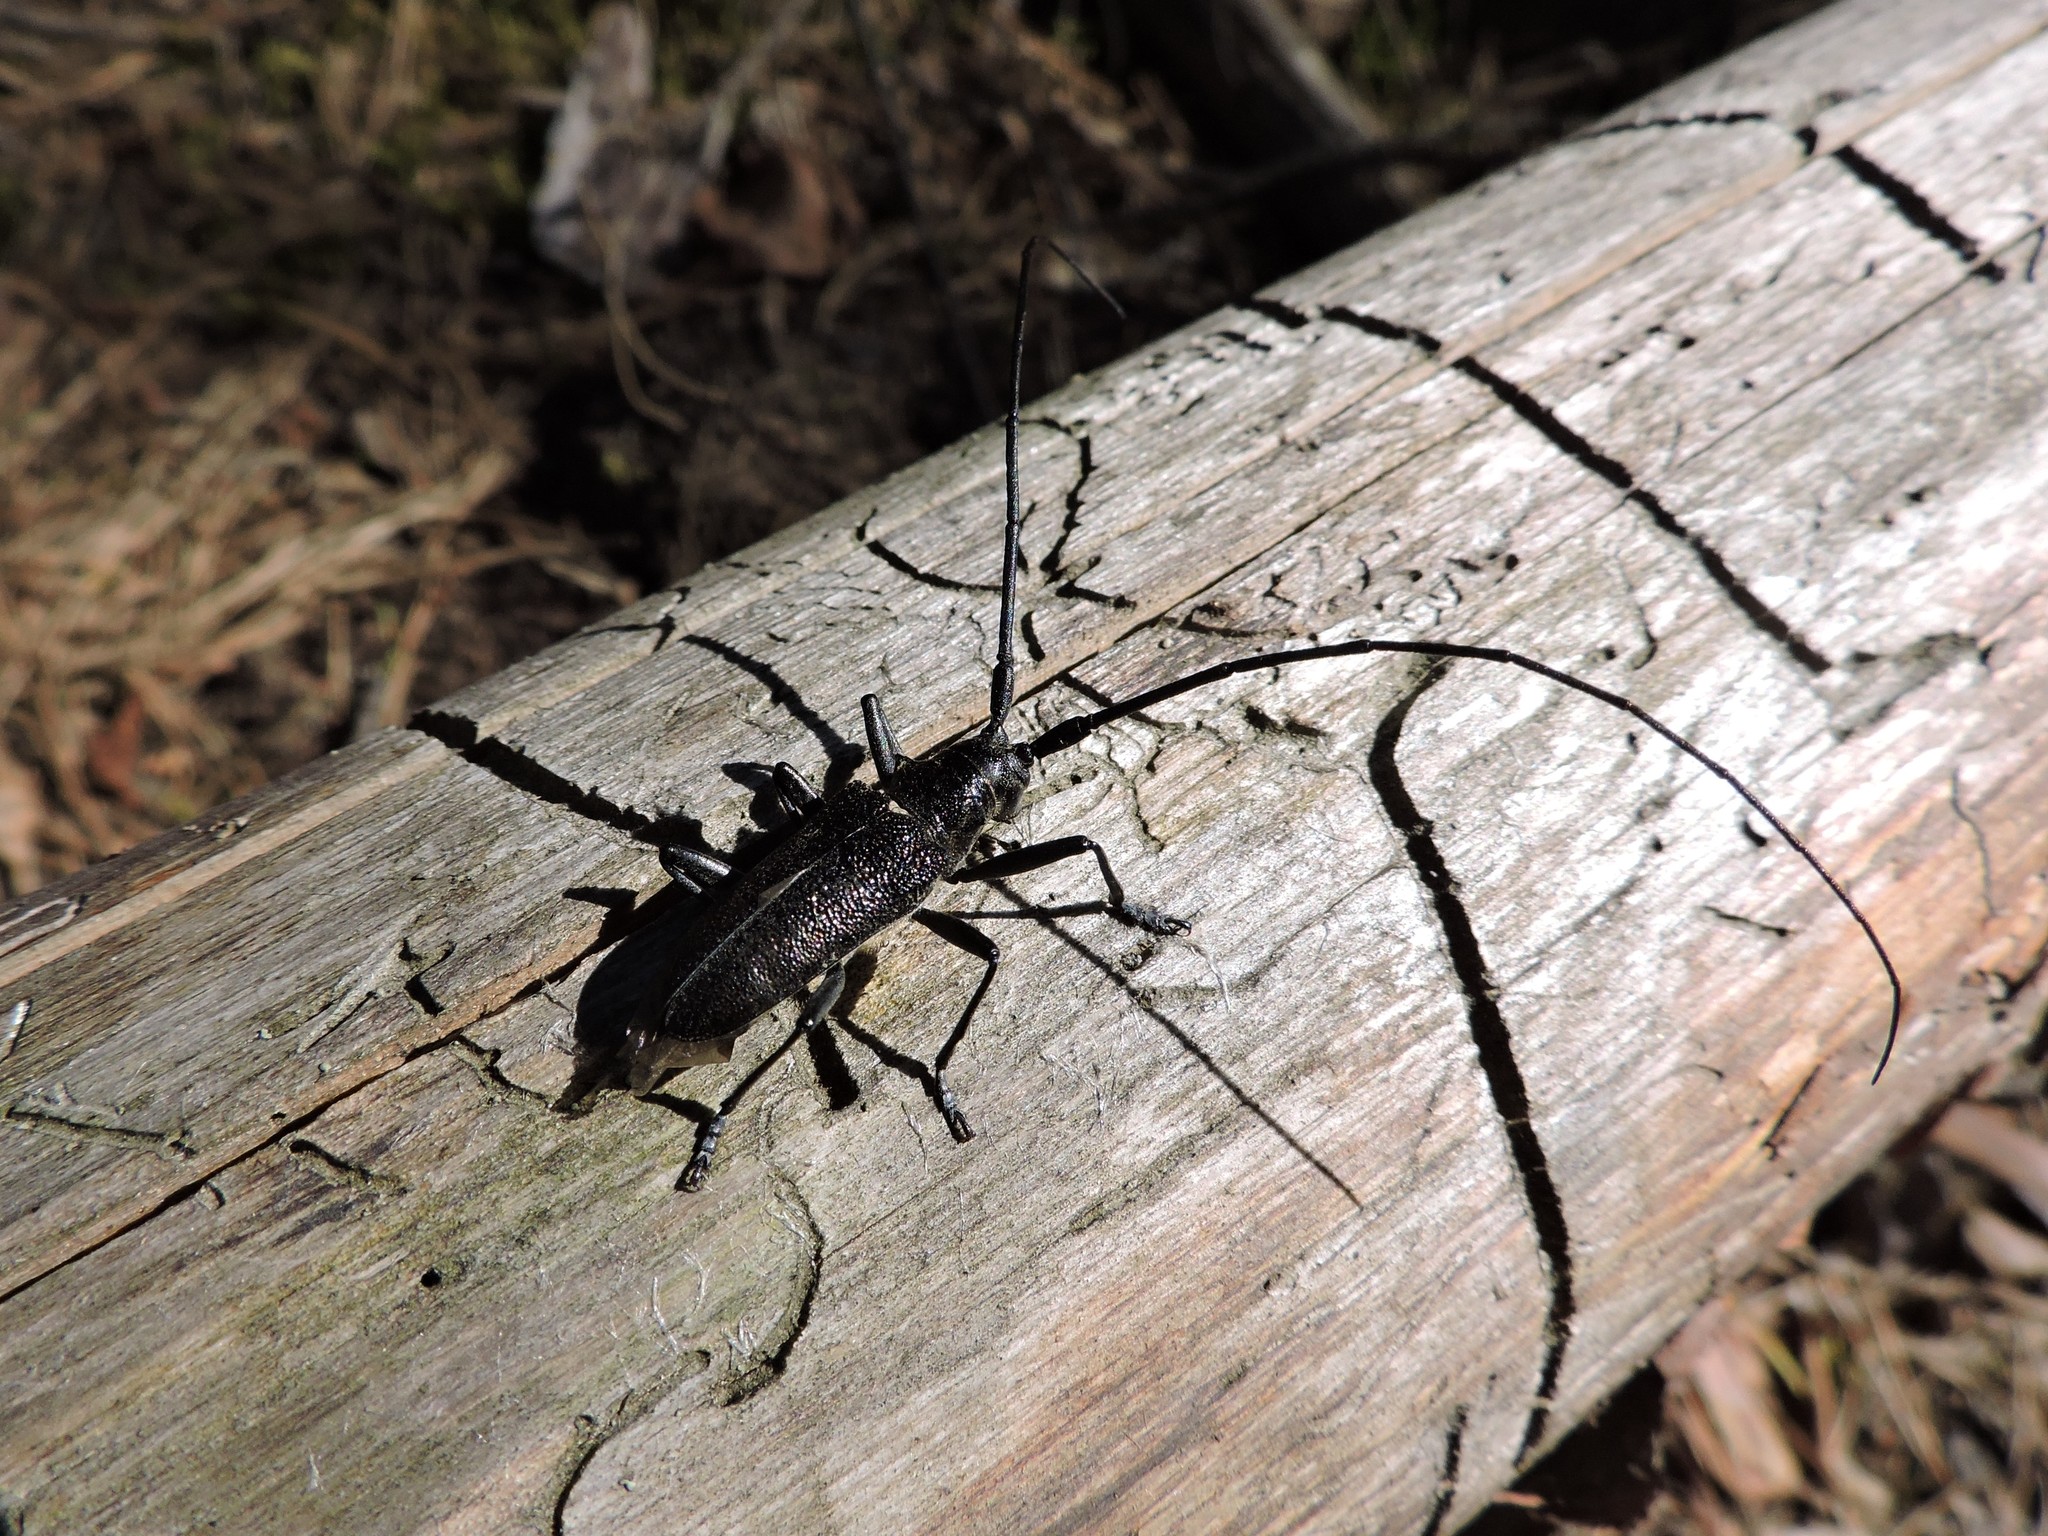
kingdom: Animalia
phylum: Arthropoda
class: Insecta
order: Coleoptera
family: Cerambycidae
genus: Monochamus
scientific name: Monochamus sutor
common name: Pine sawyer
